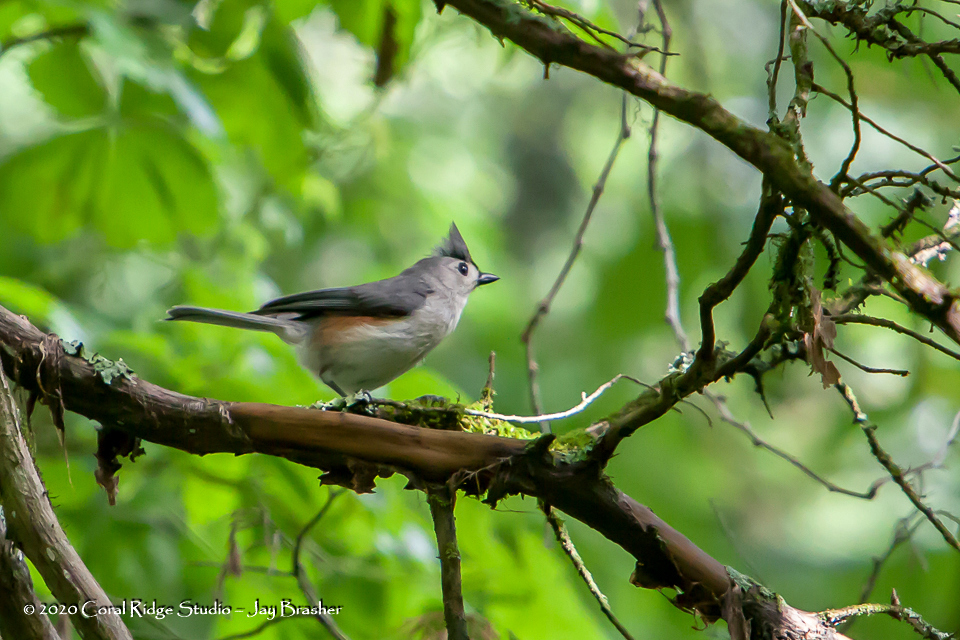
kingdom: Animalia
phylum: Chordata
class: Aves
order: Passeriformes
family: Paridae
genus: Baeolophus
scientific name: Baeolophus bicolor
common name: Tufted titmouse
